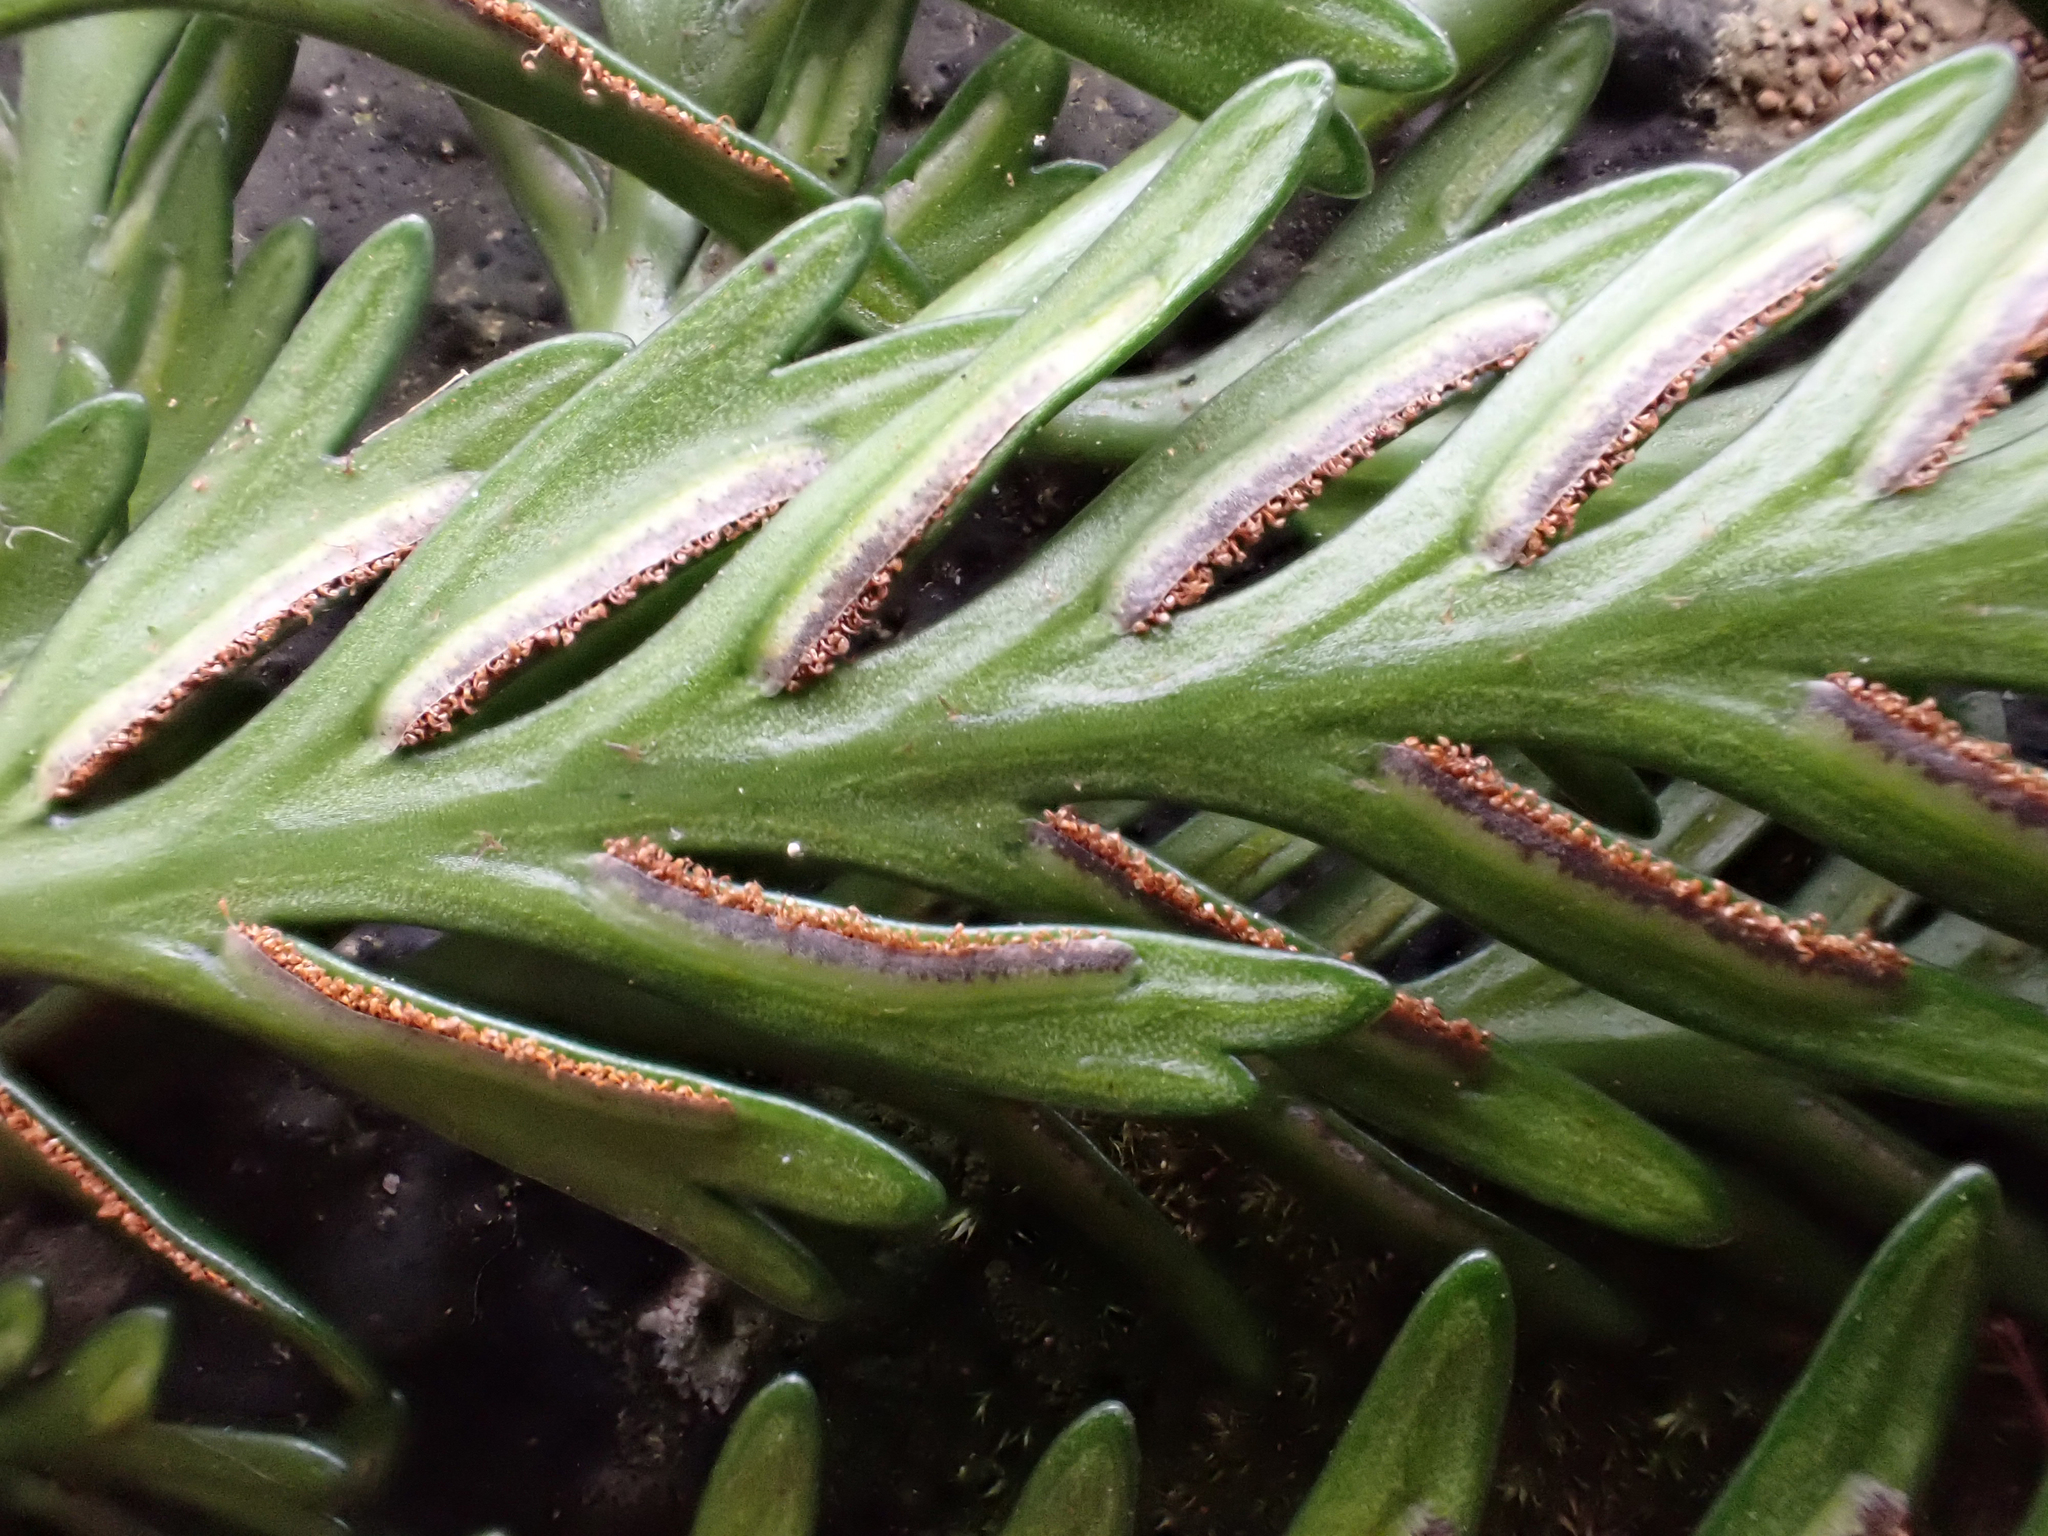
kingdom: Plantae
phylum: Tracheophyta
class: Polypodiopsida
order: Polypodiales
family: Aspleniaceae
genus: Asplenium
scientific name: Asplenium
